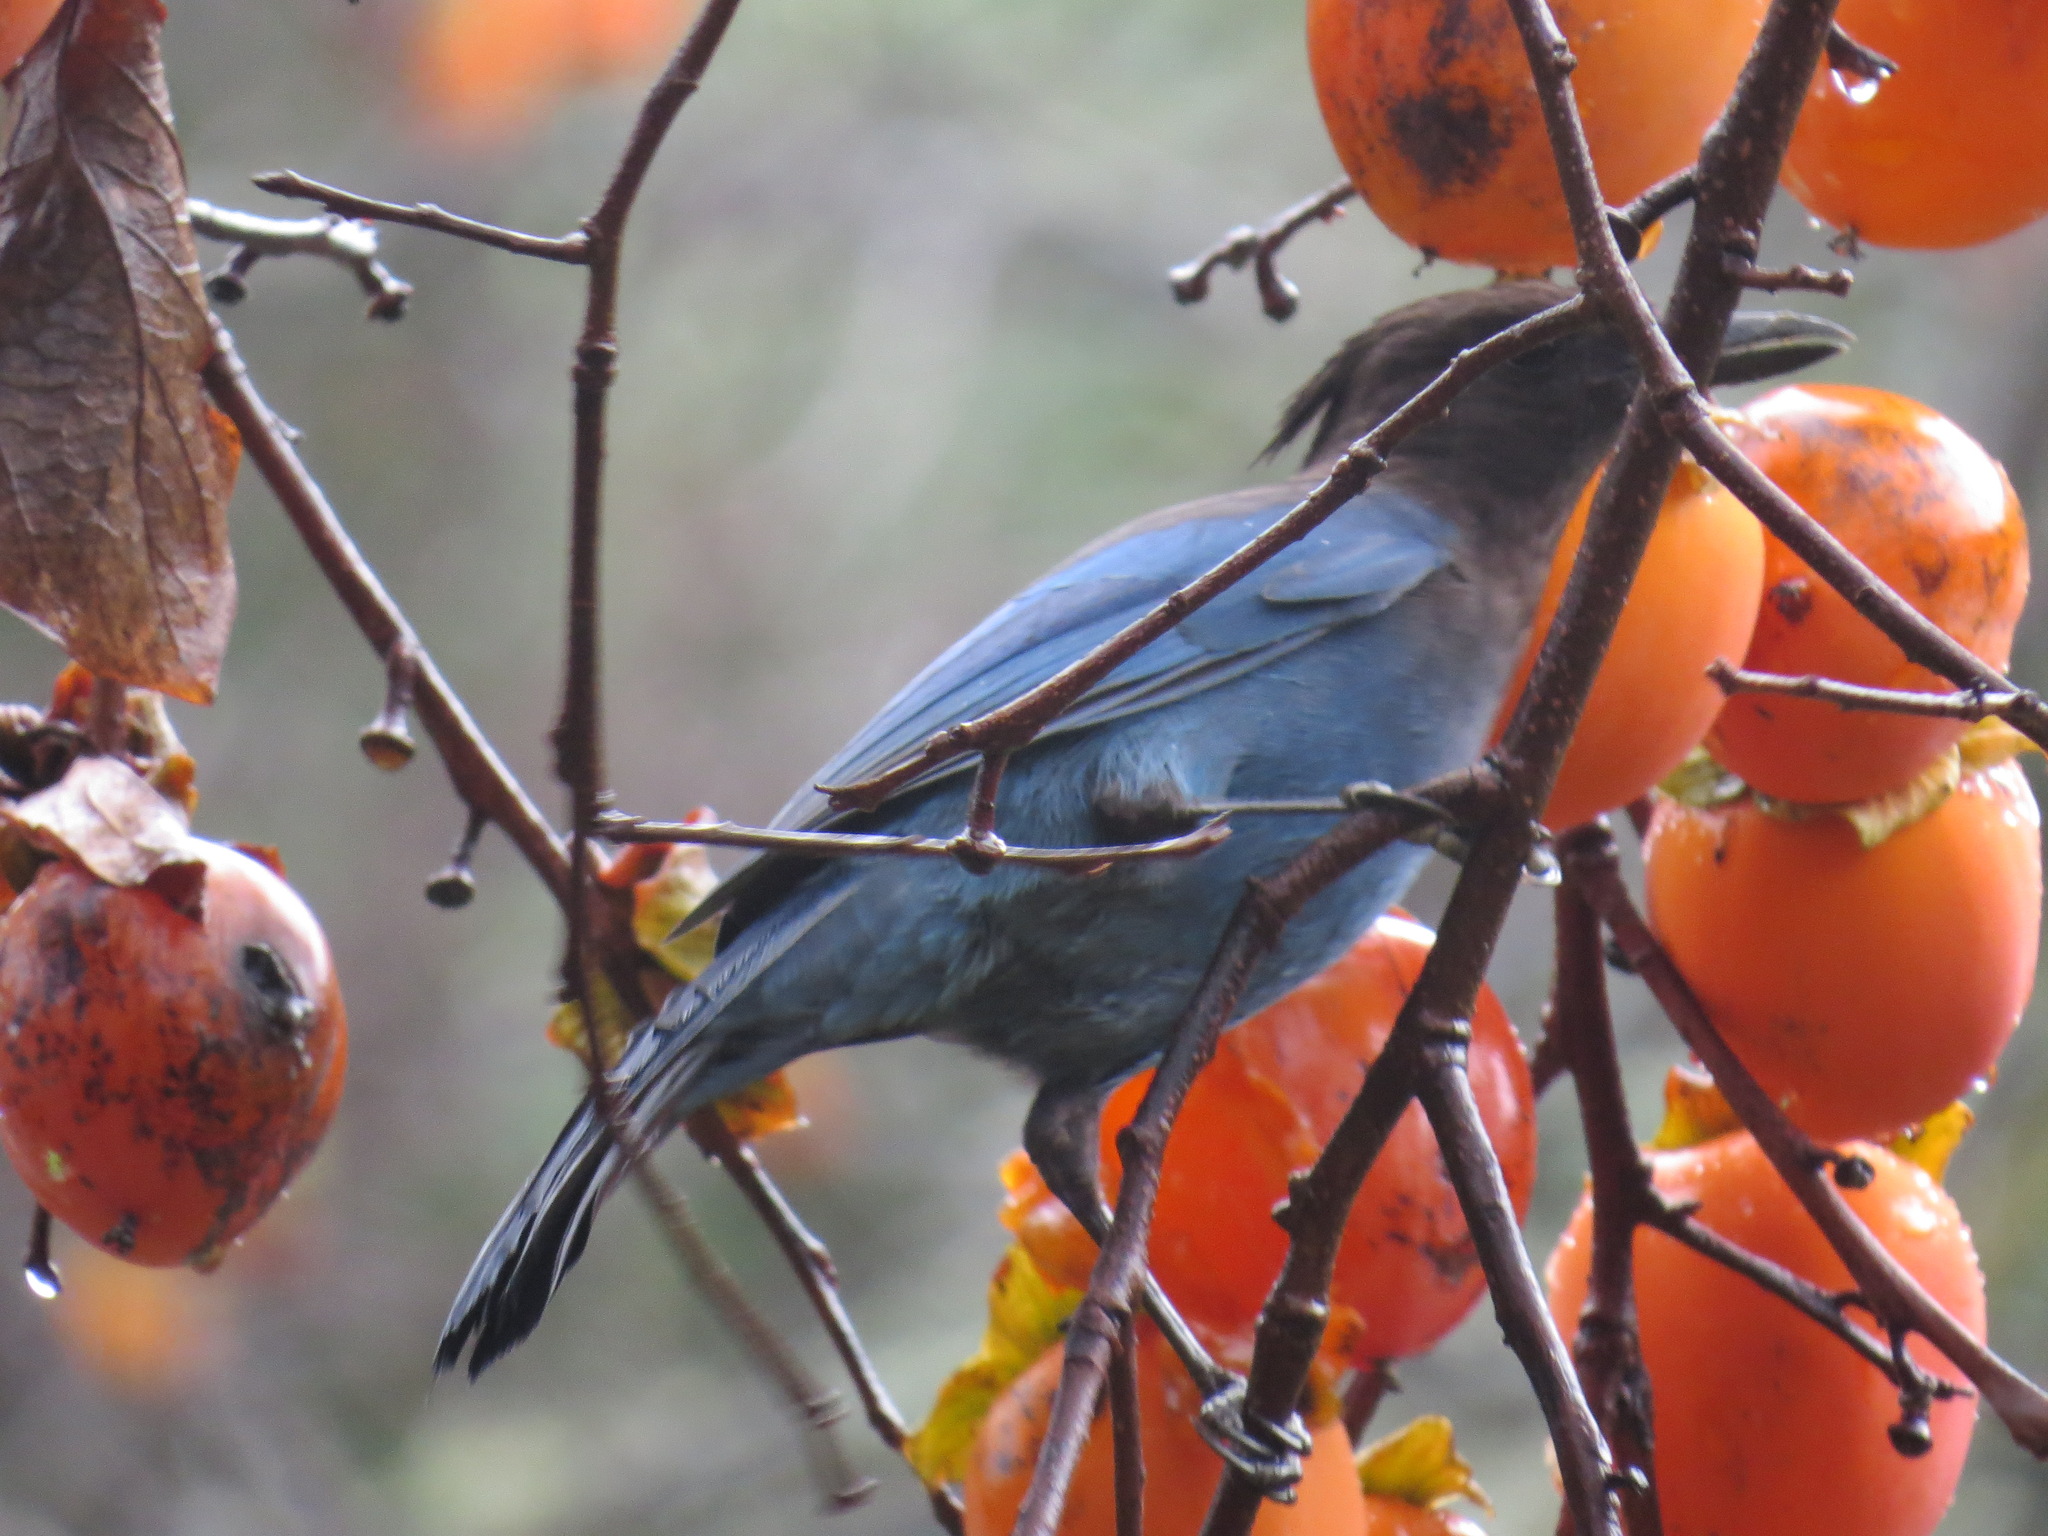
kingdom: Animalia
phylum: Chordata
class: Aves
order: Passeriformes
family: Corvidae
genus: Cyanocitta
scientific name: Cyanocitta stelleri
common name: Steller's jay
